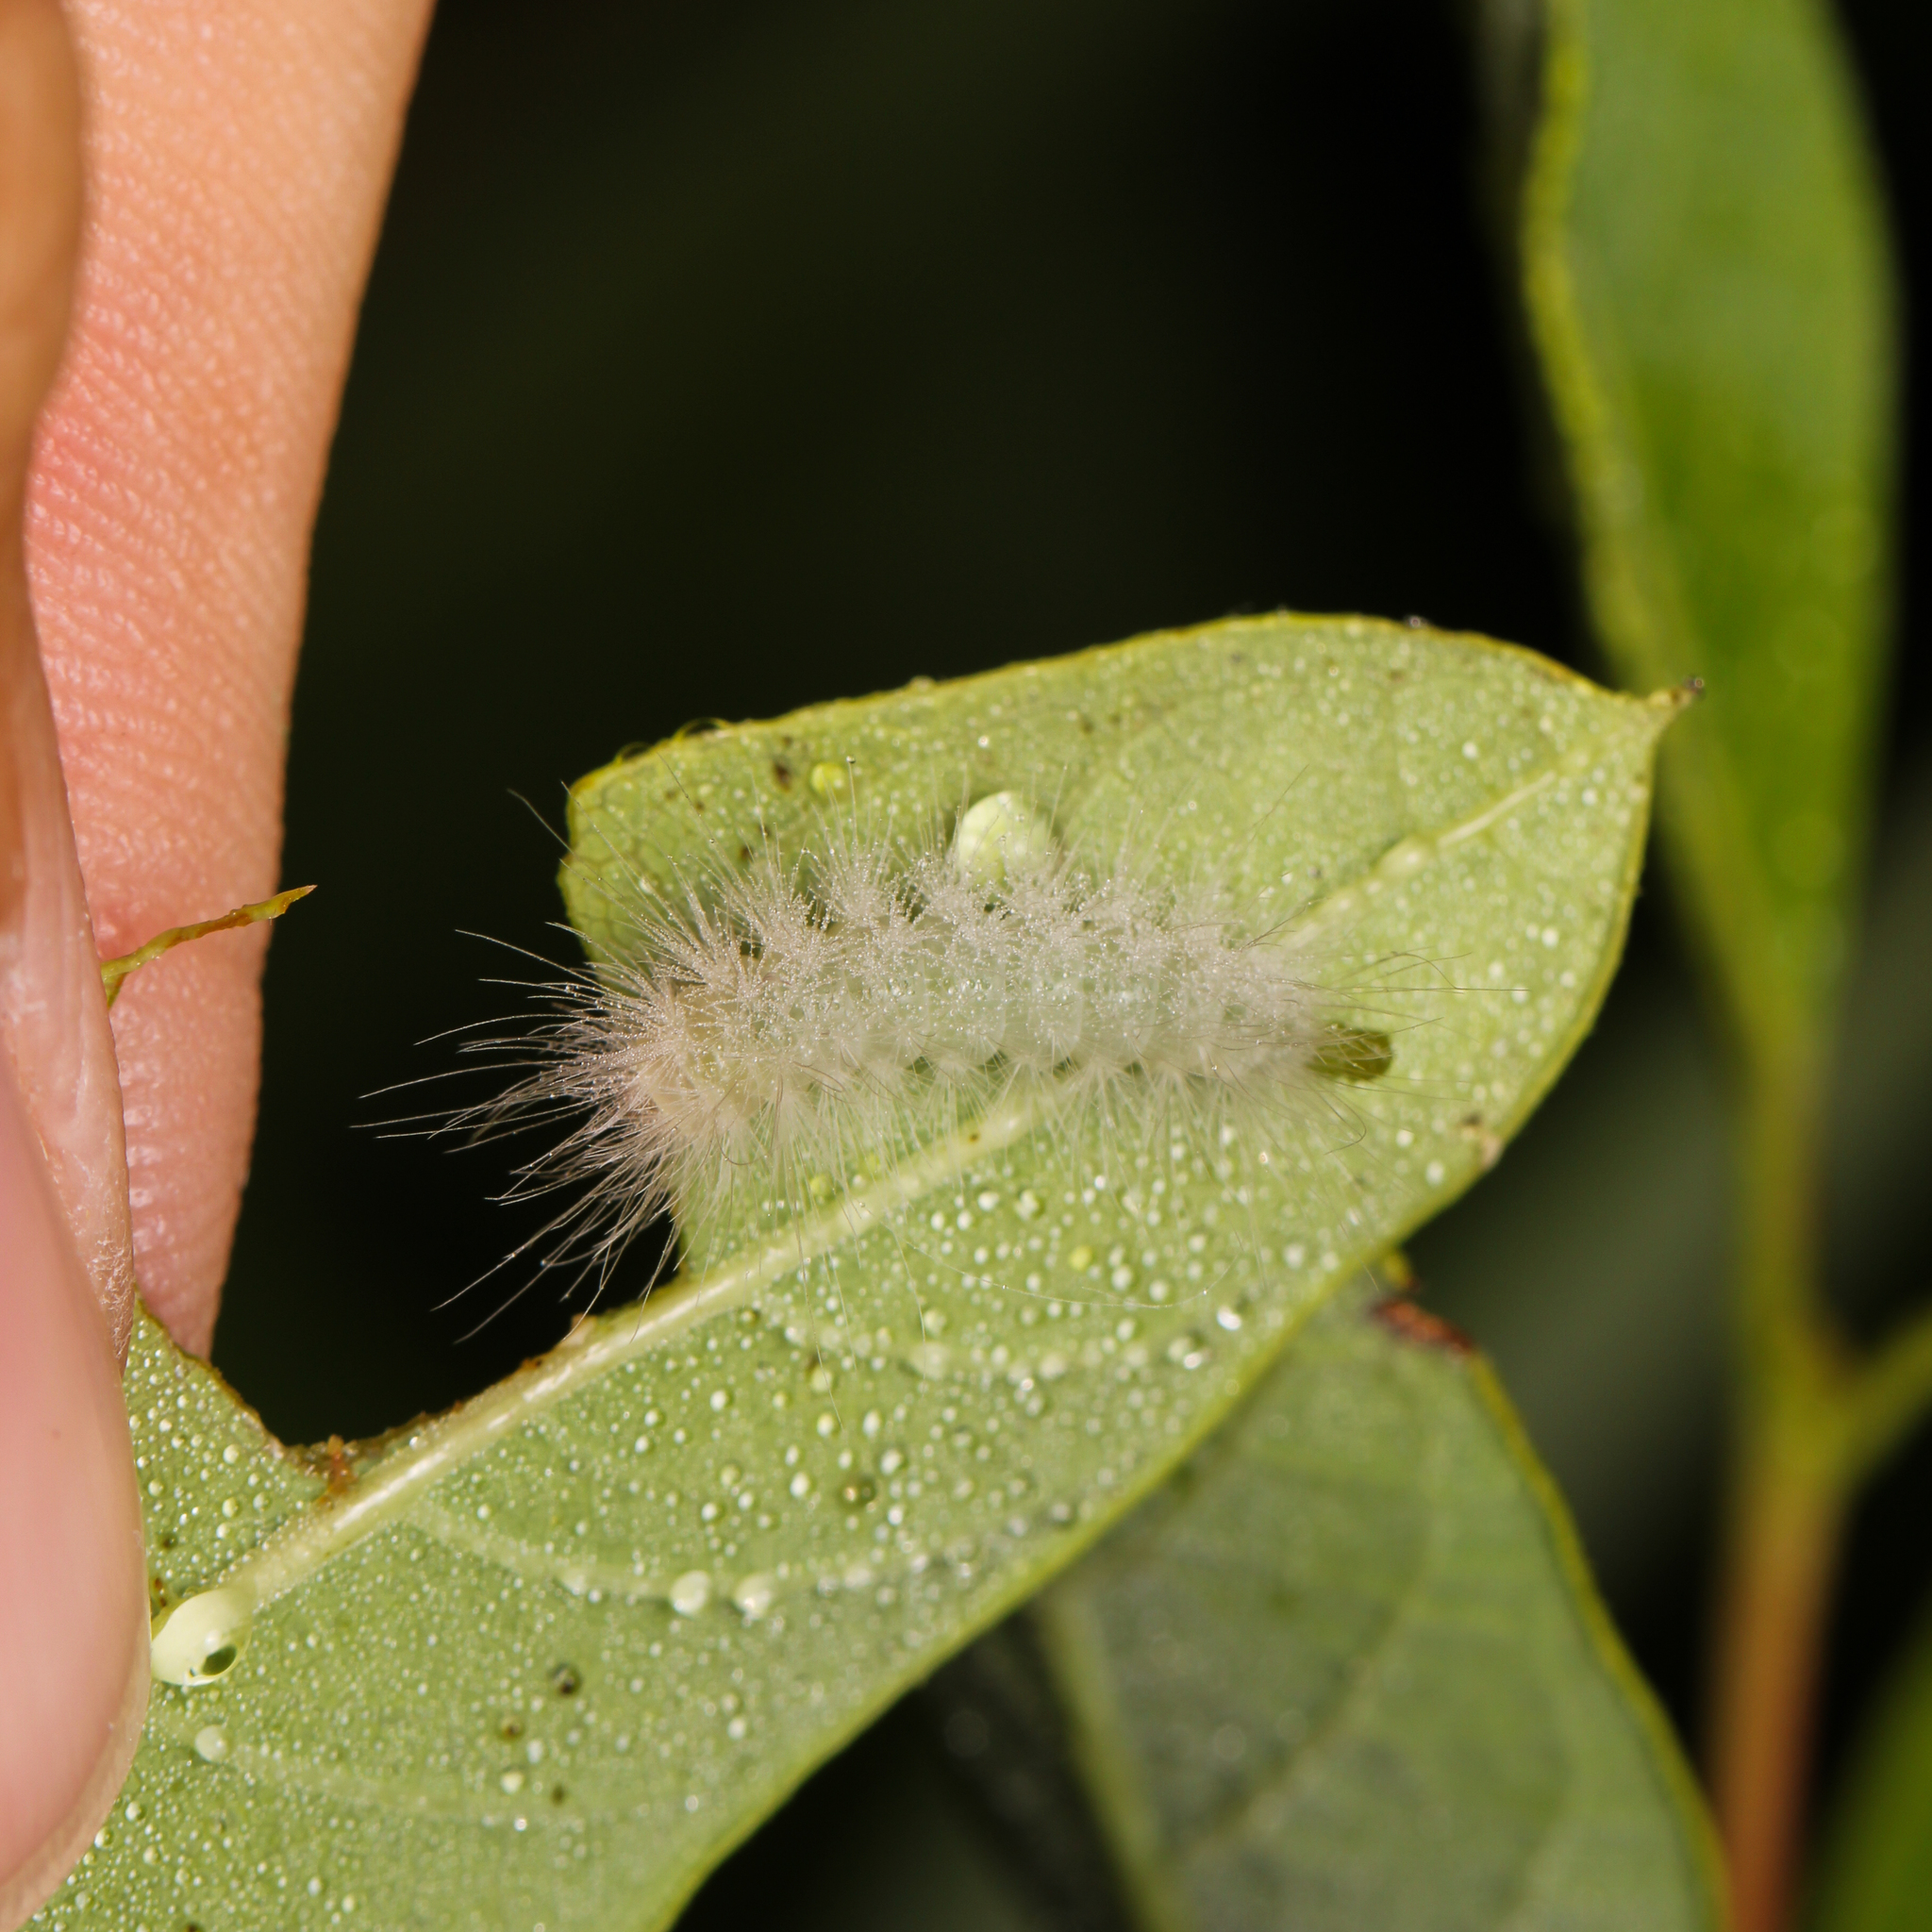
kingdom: Animalia
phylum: Arthropoda
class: Insecta
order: Lepidoptera
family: Erebidae
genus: Cycnia
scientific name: Cycnia tenera
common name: Delicate cycnia moth
